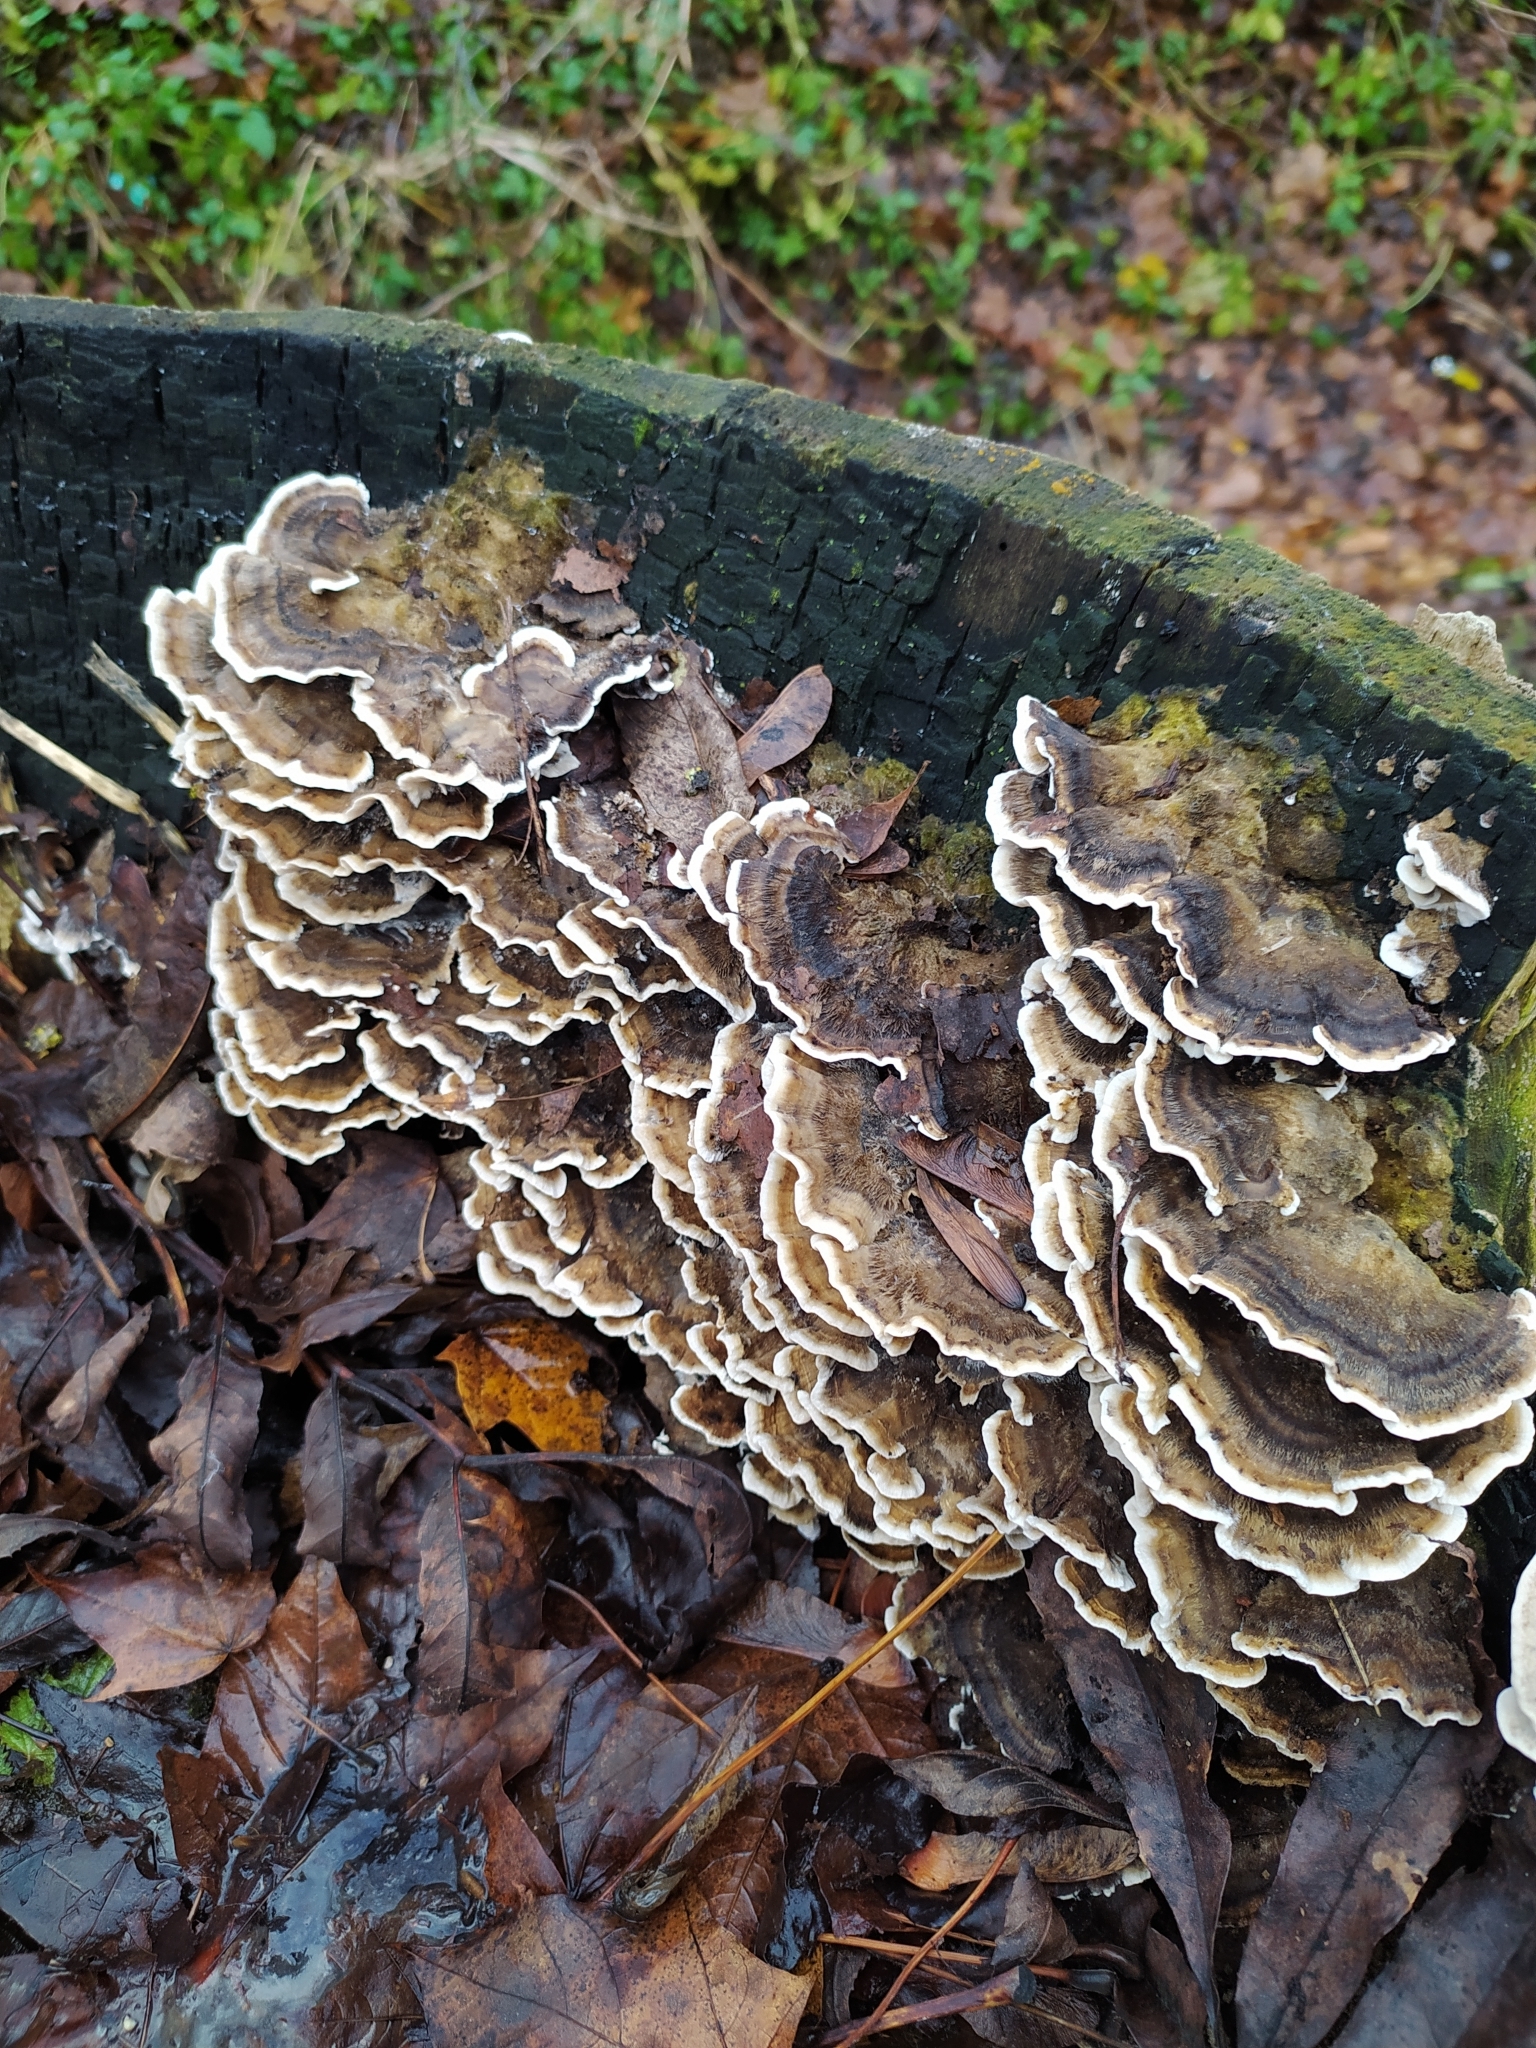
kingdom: Fungi
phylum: Basidiomycota
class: Agaricomycetes
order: Polyporales
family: Phanerochaetaceae
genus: Bjerkandera
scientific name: Bjerkandera adusta
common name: Smoky bracket
